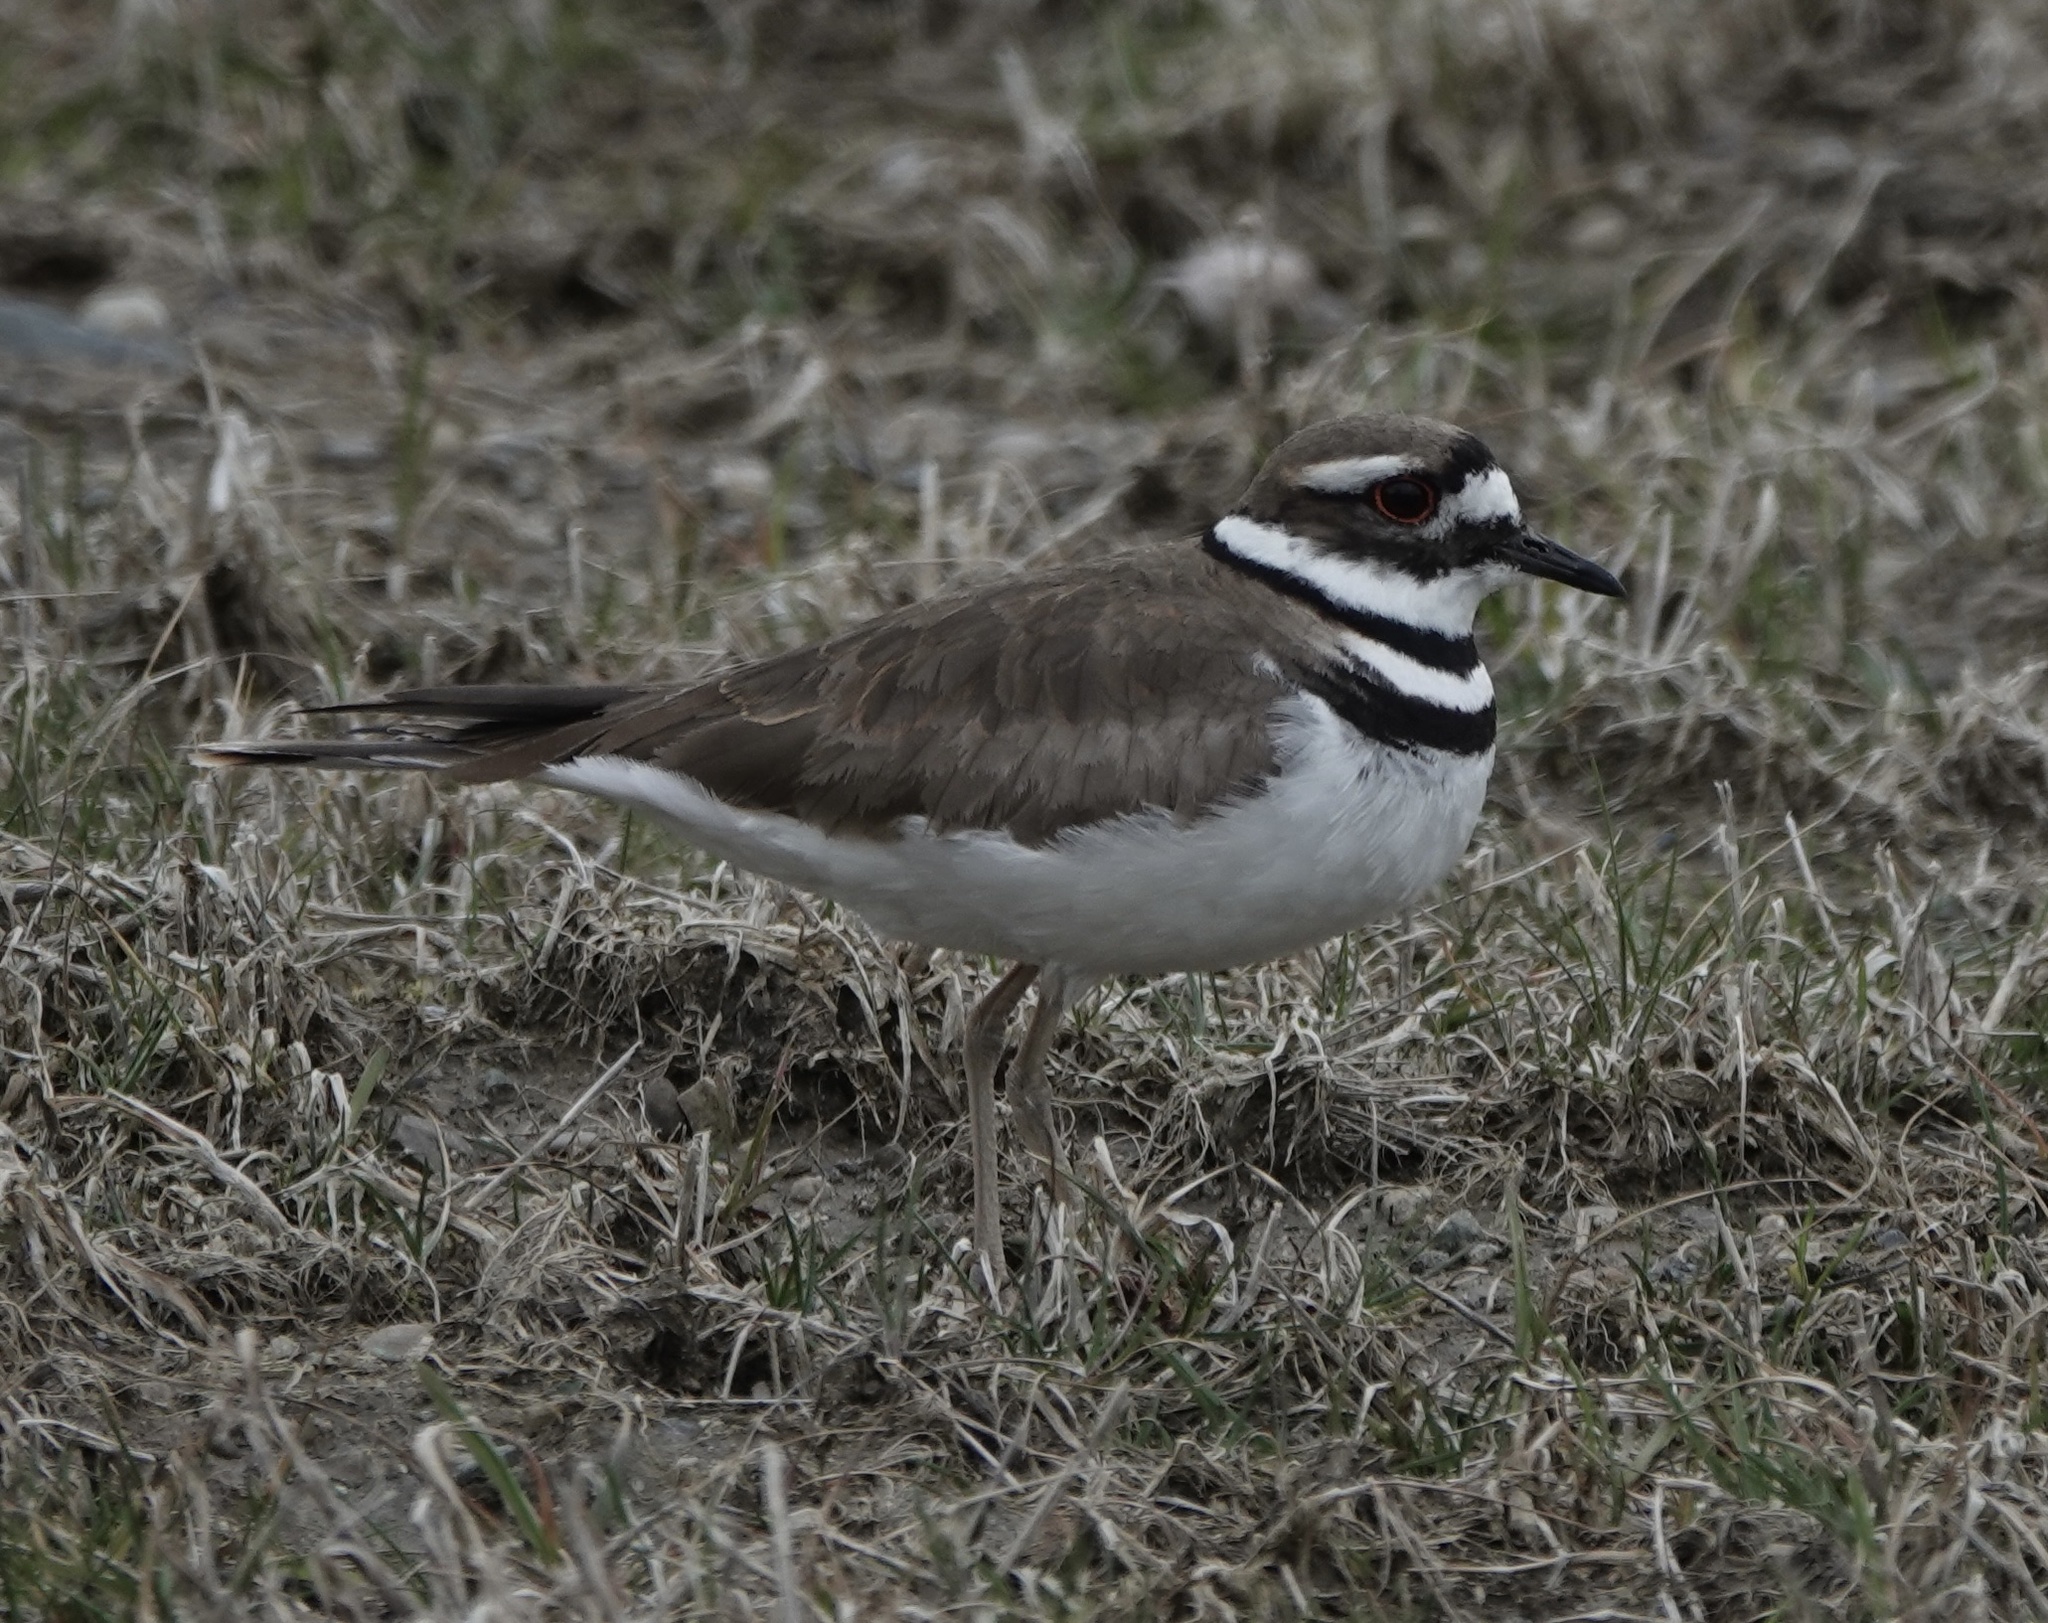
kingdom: Animalia
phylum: Chordata
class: Aves
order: Charadriiformes
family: Charadriidae
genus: Charadrius
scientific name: Charadrius vociferus
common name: Killdeer
